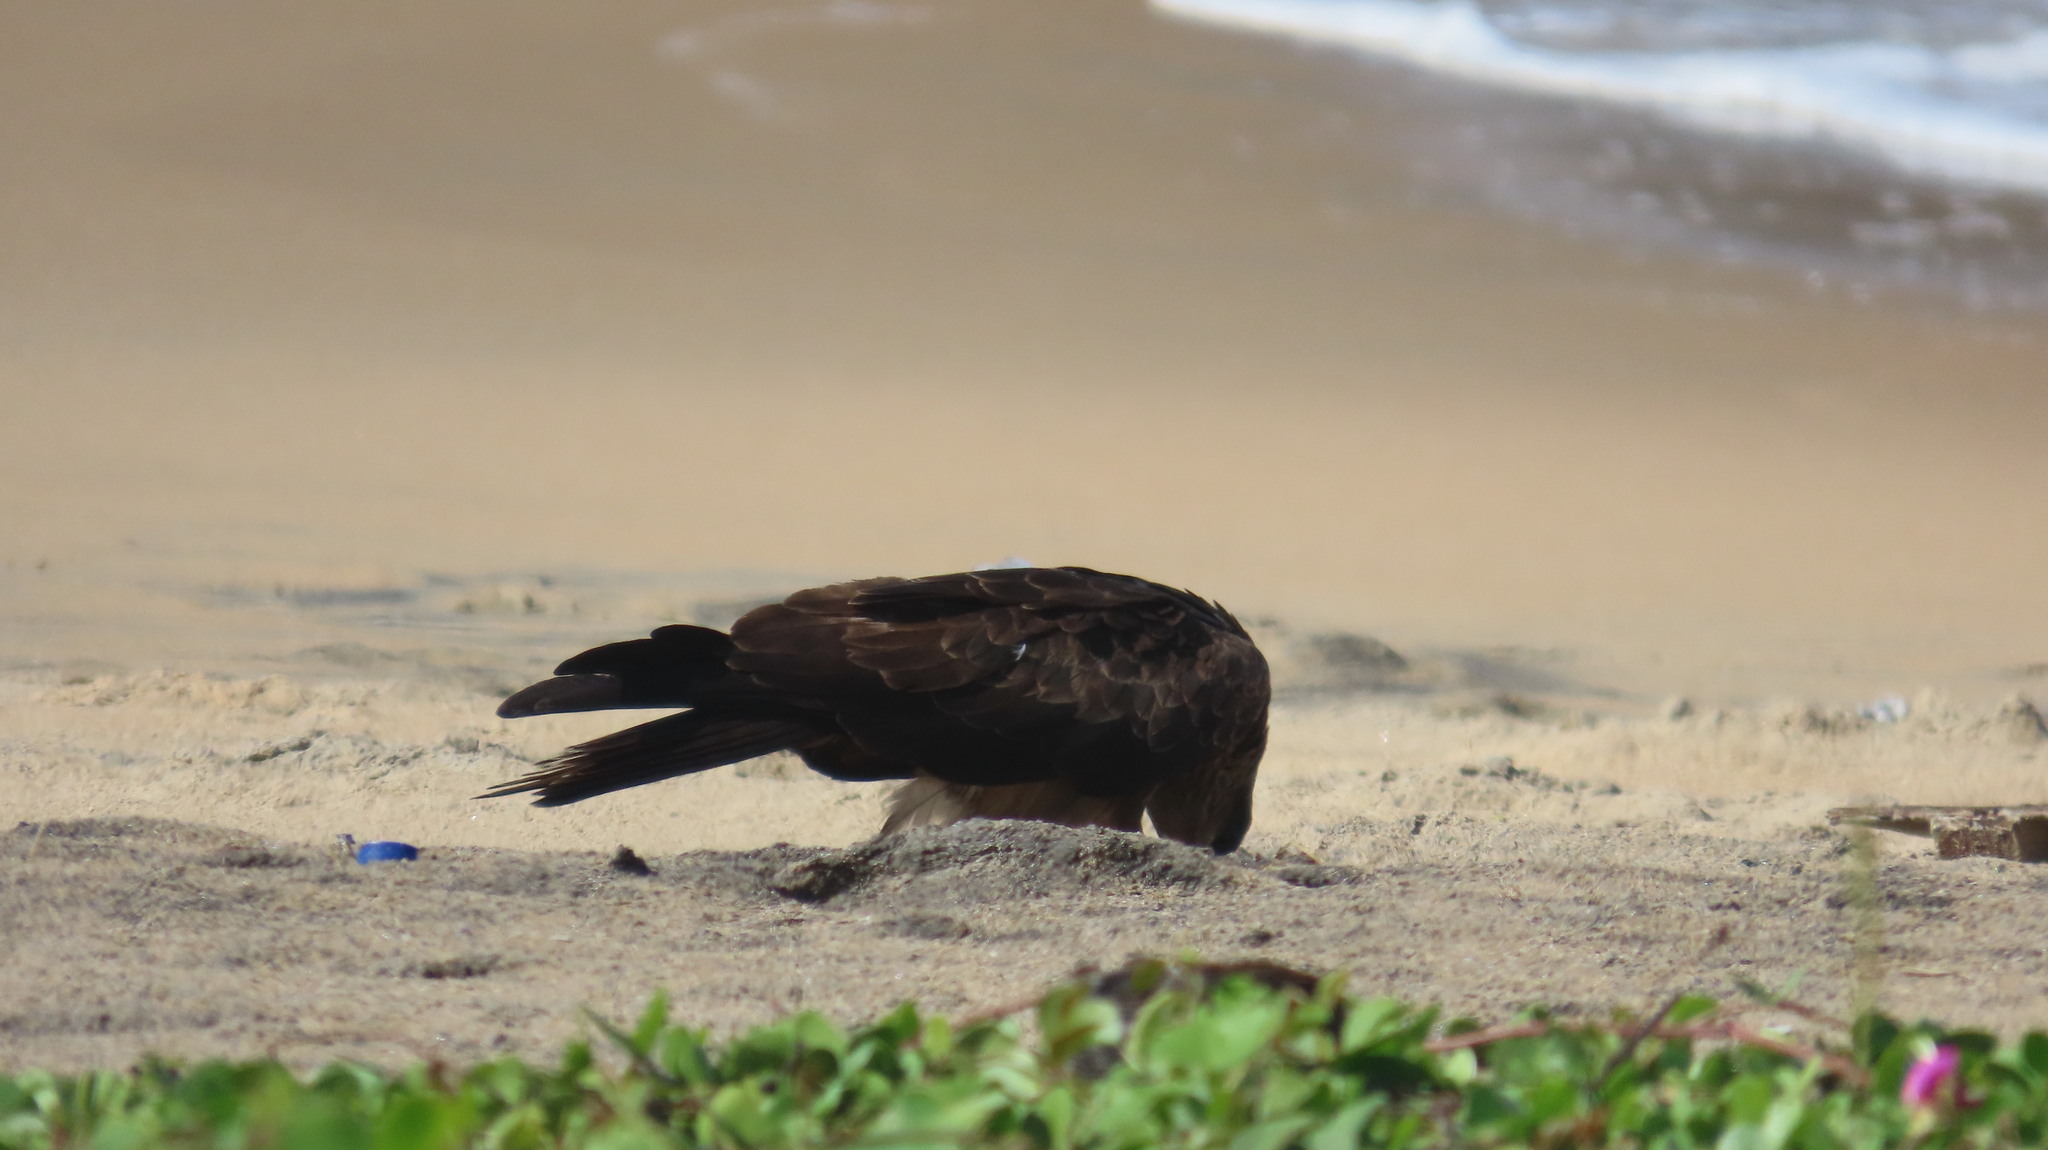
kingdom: Animalia
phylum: Chordata
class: Aves
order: Accipitriformes
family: Accipitridae
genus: Milvus
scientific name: Milvus migrans
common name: Black kite
